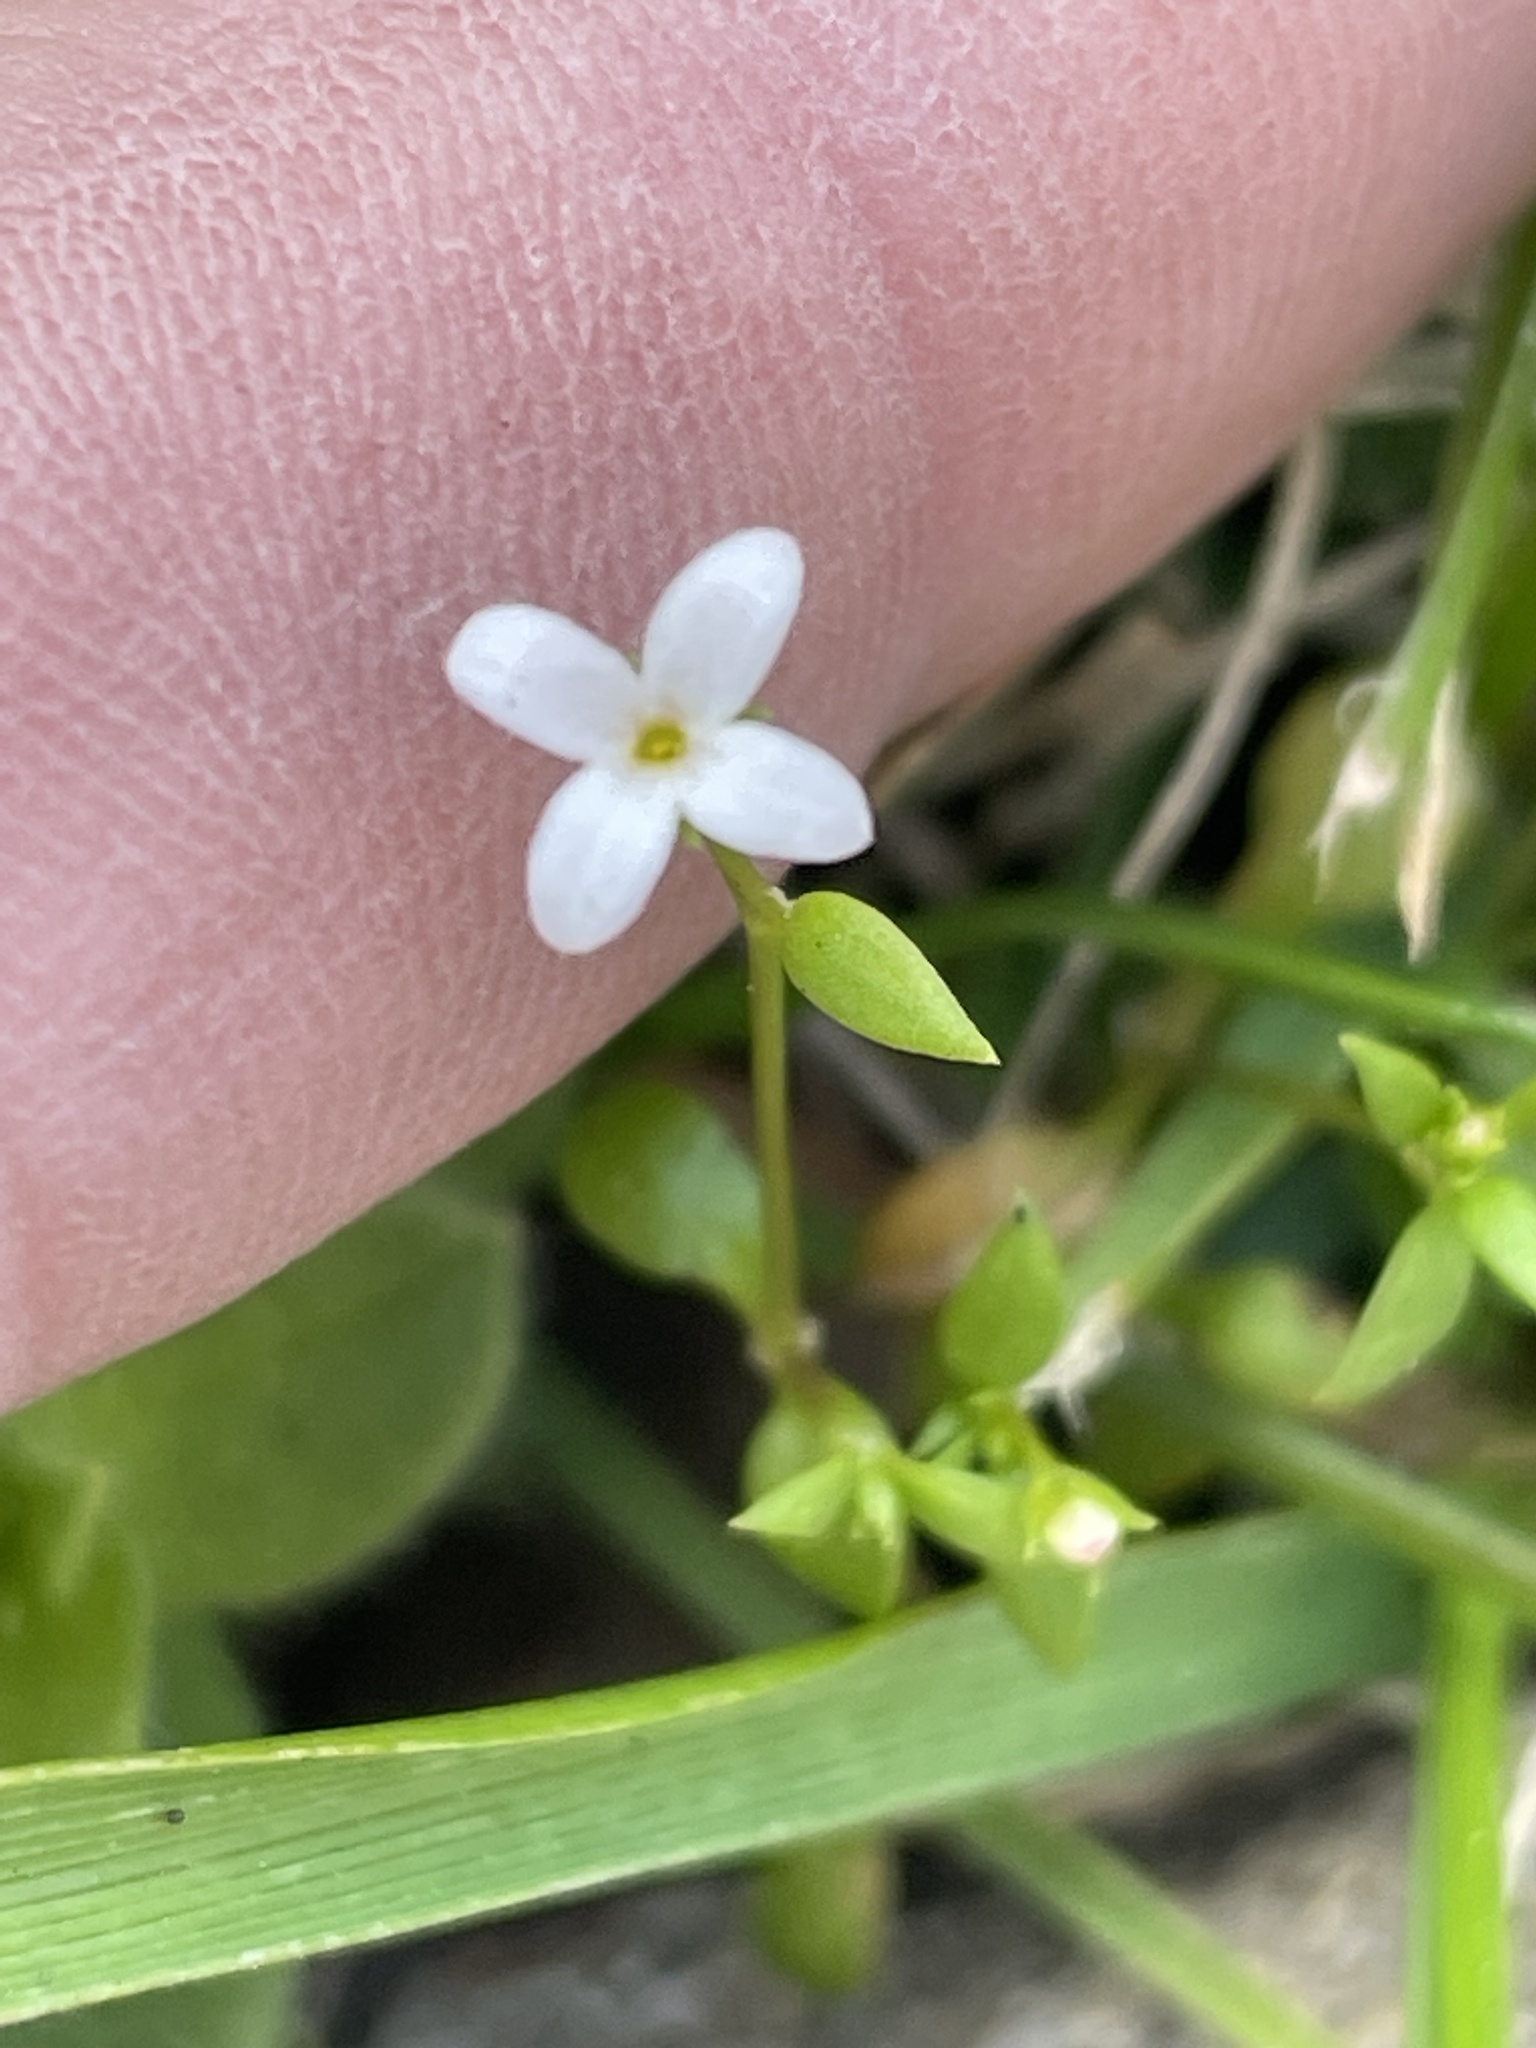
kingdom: Plantae
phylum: Tracheophyta
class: Magnoliopsida
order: Gentianales
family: Rubiaceae
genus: Houstonia
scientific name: Houstonia micrantha
